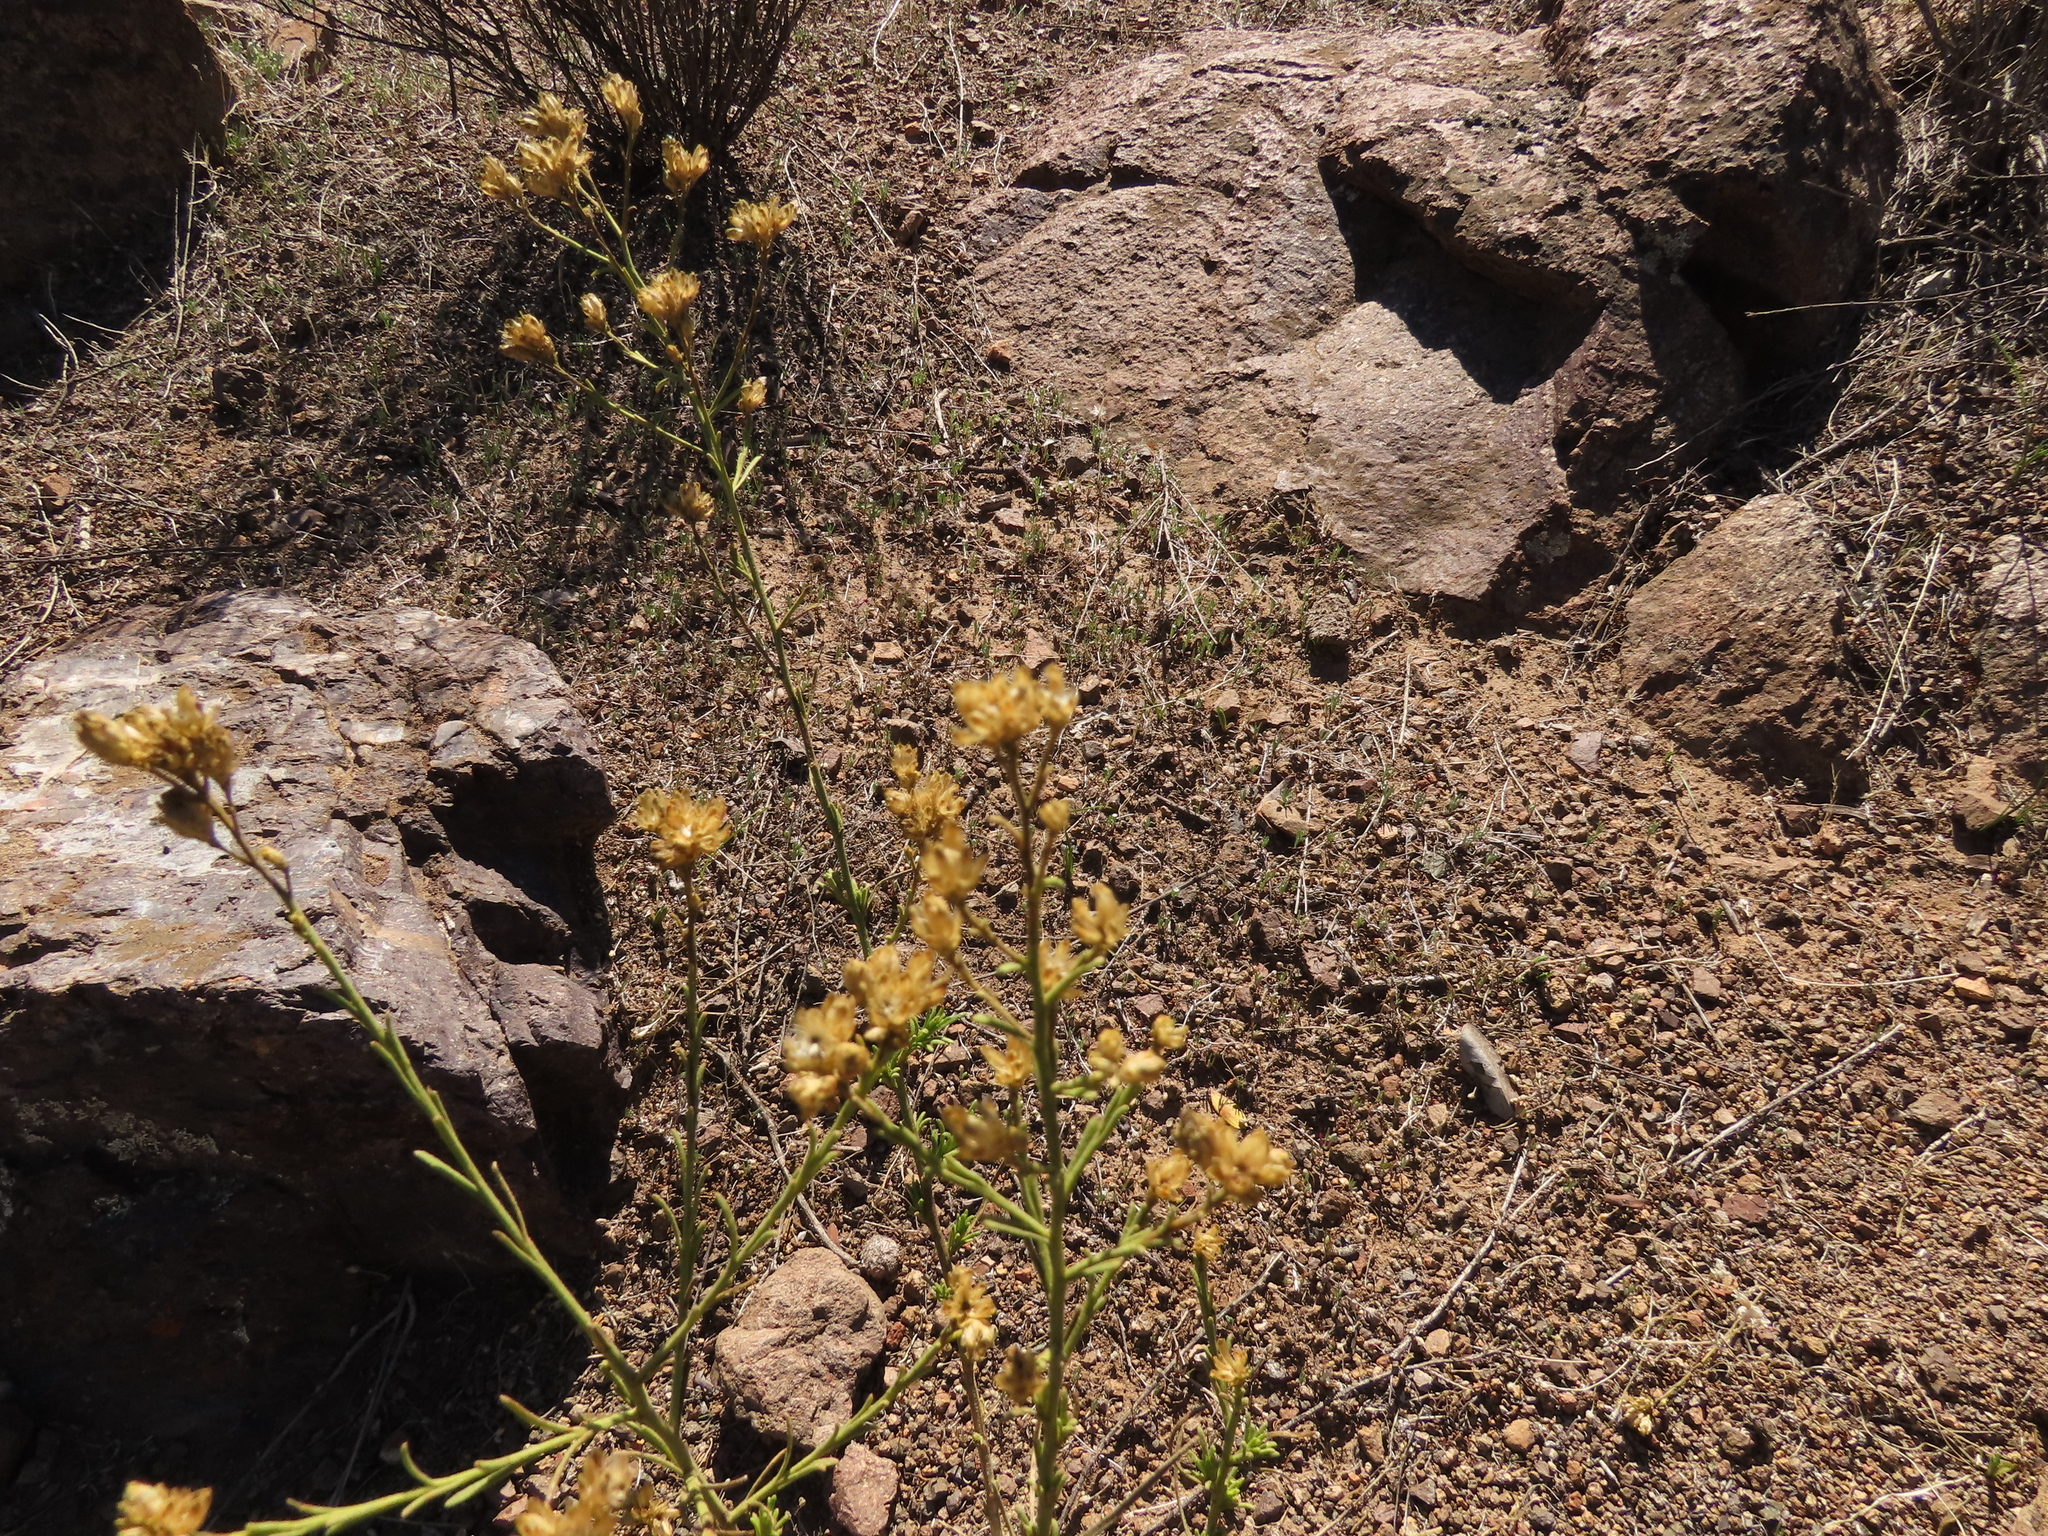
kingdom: Plantae
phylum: Tracheophyta
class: Magnoliopsida
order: Asterales
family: Asteraceae
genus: Gutierrezia
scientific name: Gutierrezia resinosa
